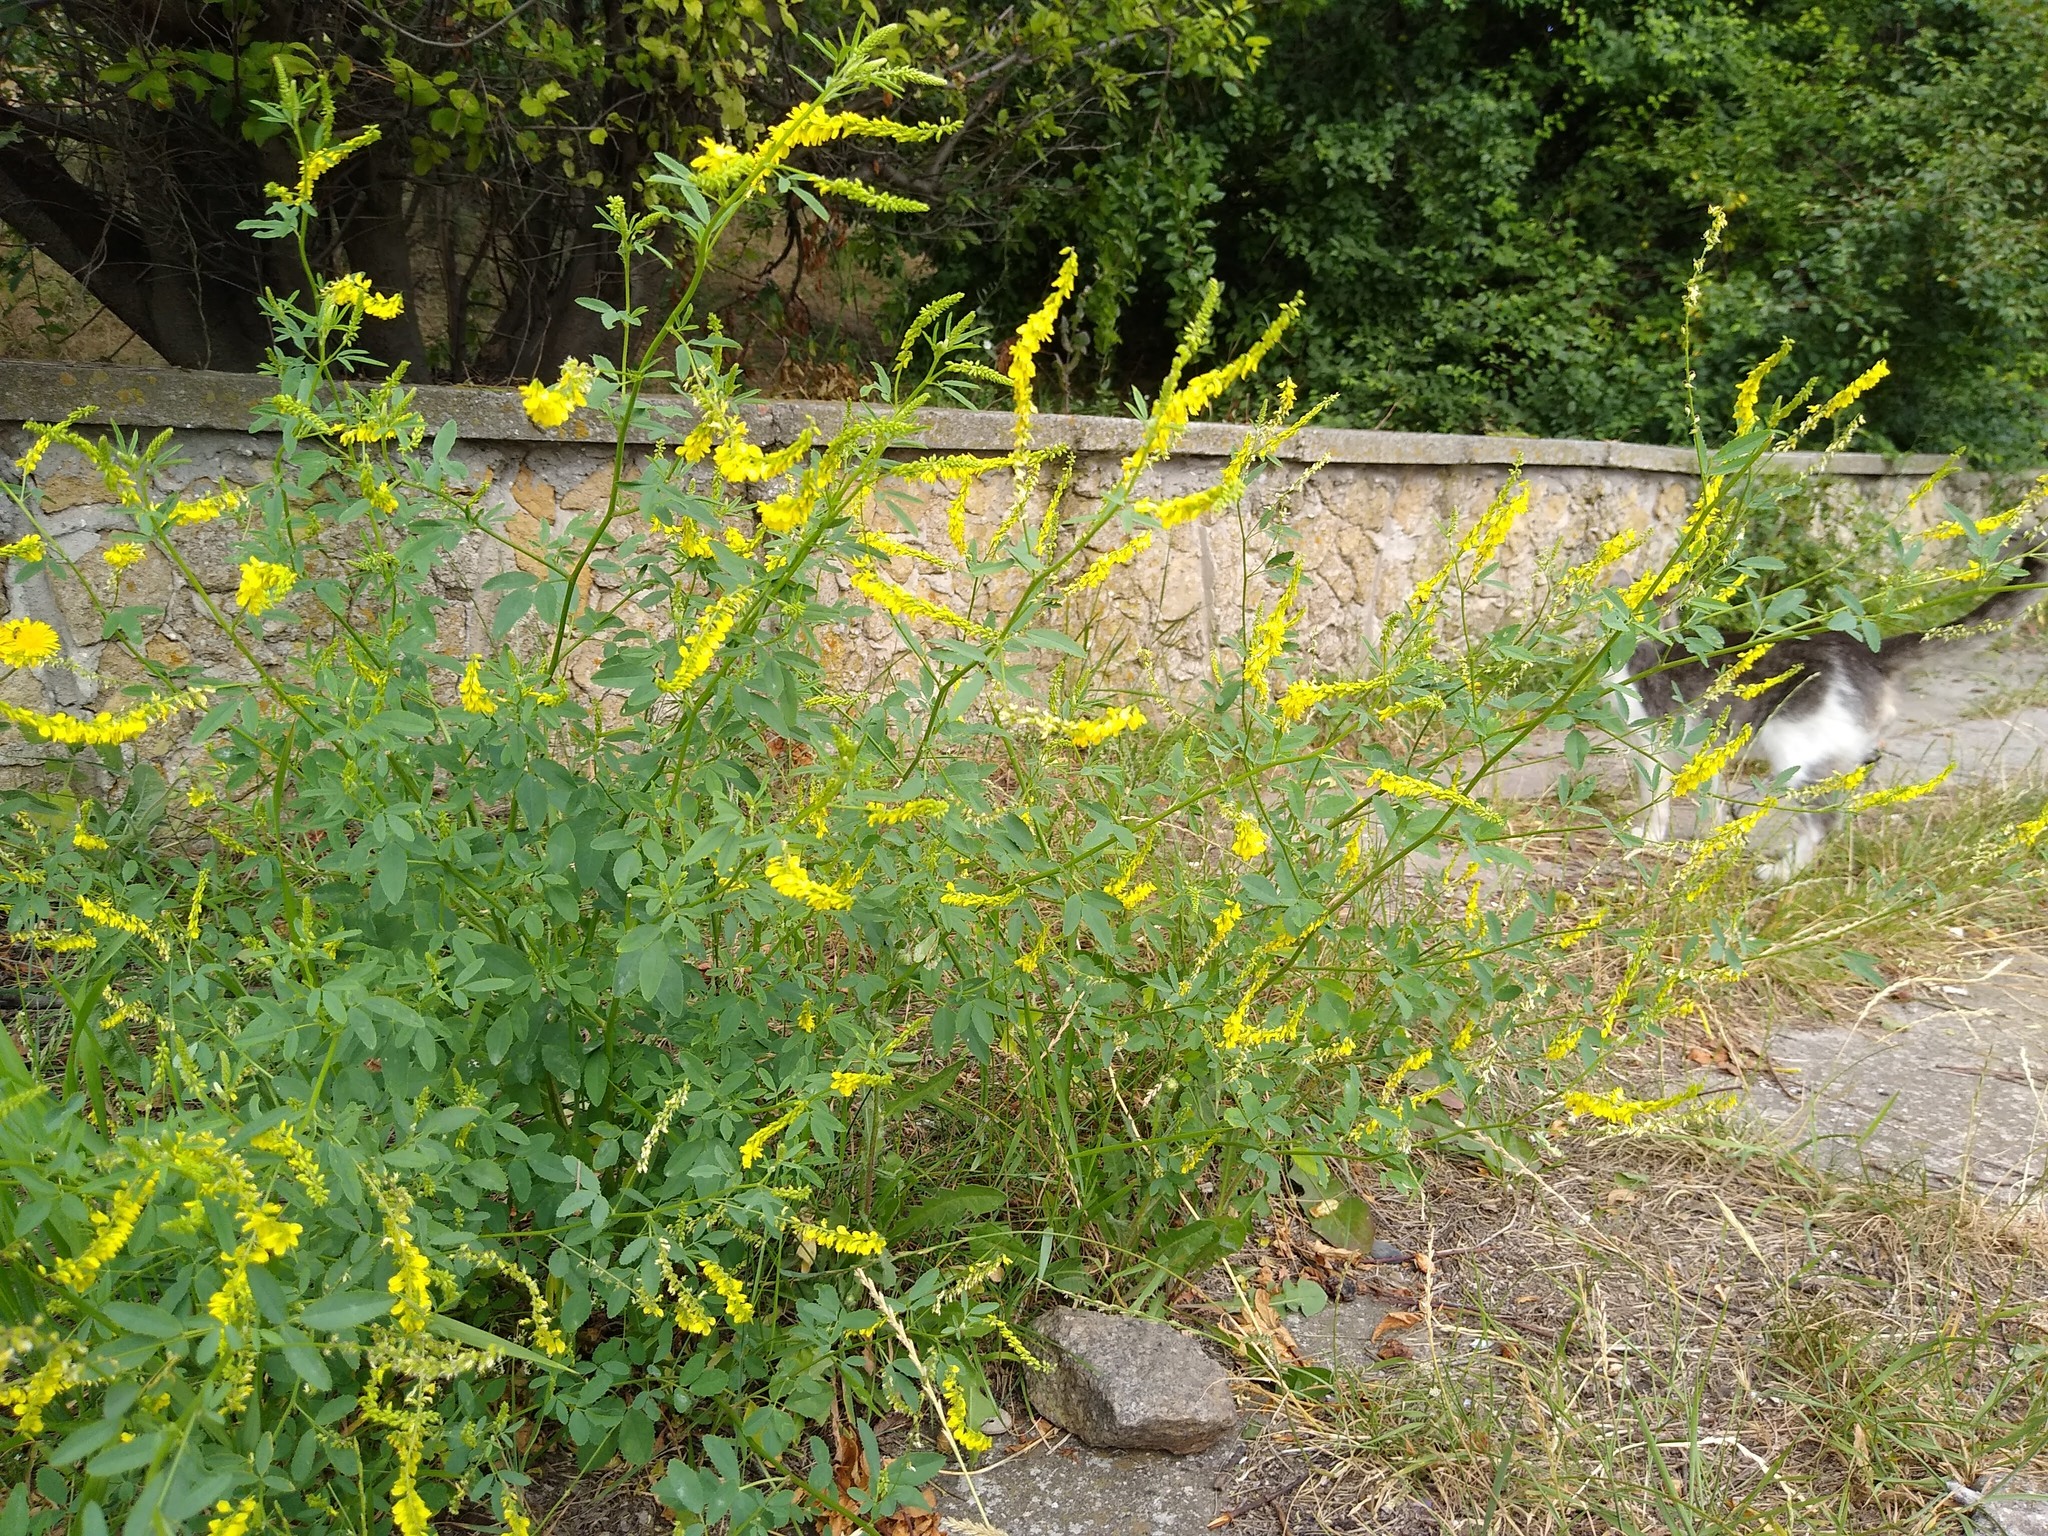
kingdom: Plantae
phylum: Tracheophyta
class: Magnoliopsida
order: Fabales
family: Fabaceae
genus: Melilotus
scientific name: Melilotus officinalis
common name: Sweetclover
